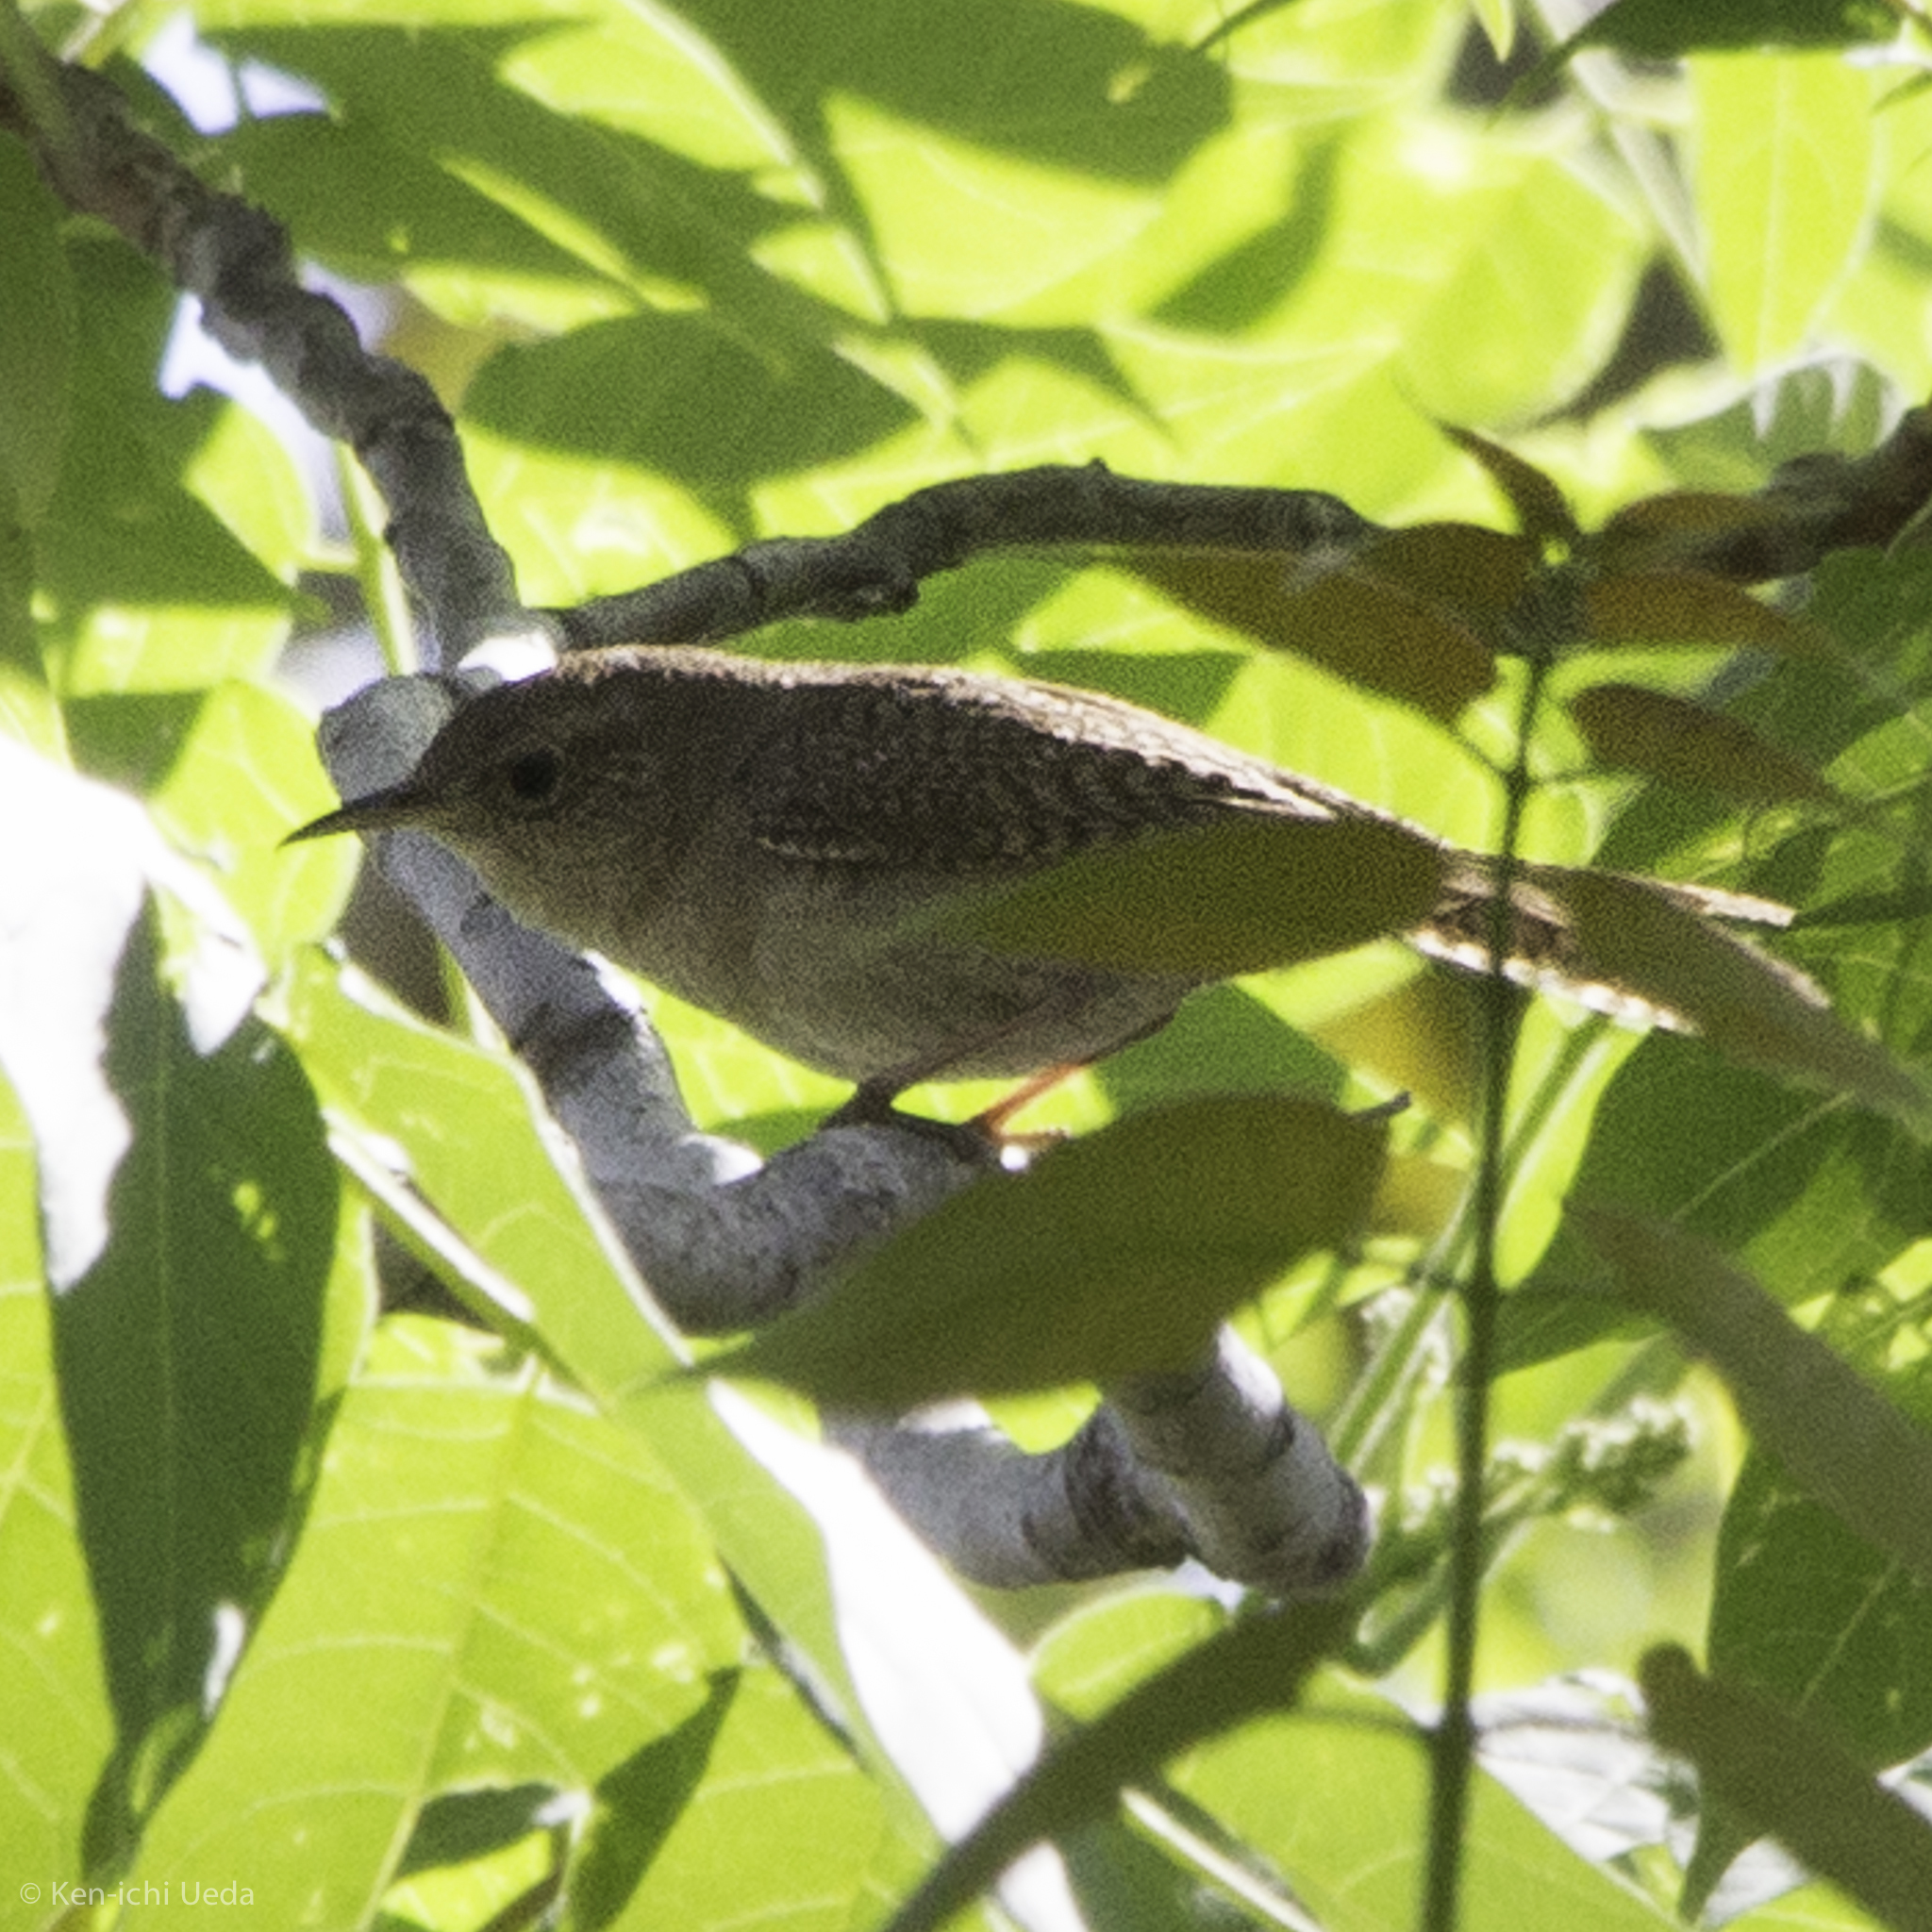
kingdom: Animalia
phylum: Chordata
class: Aves
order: Passeriformes
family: Troglodytidae
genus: Troglodytes
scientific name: Troglodytes aedon
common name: House wren
